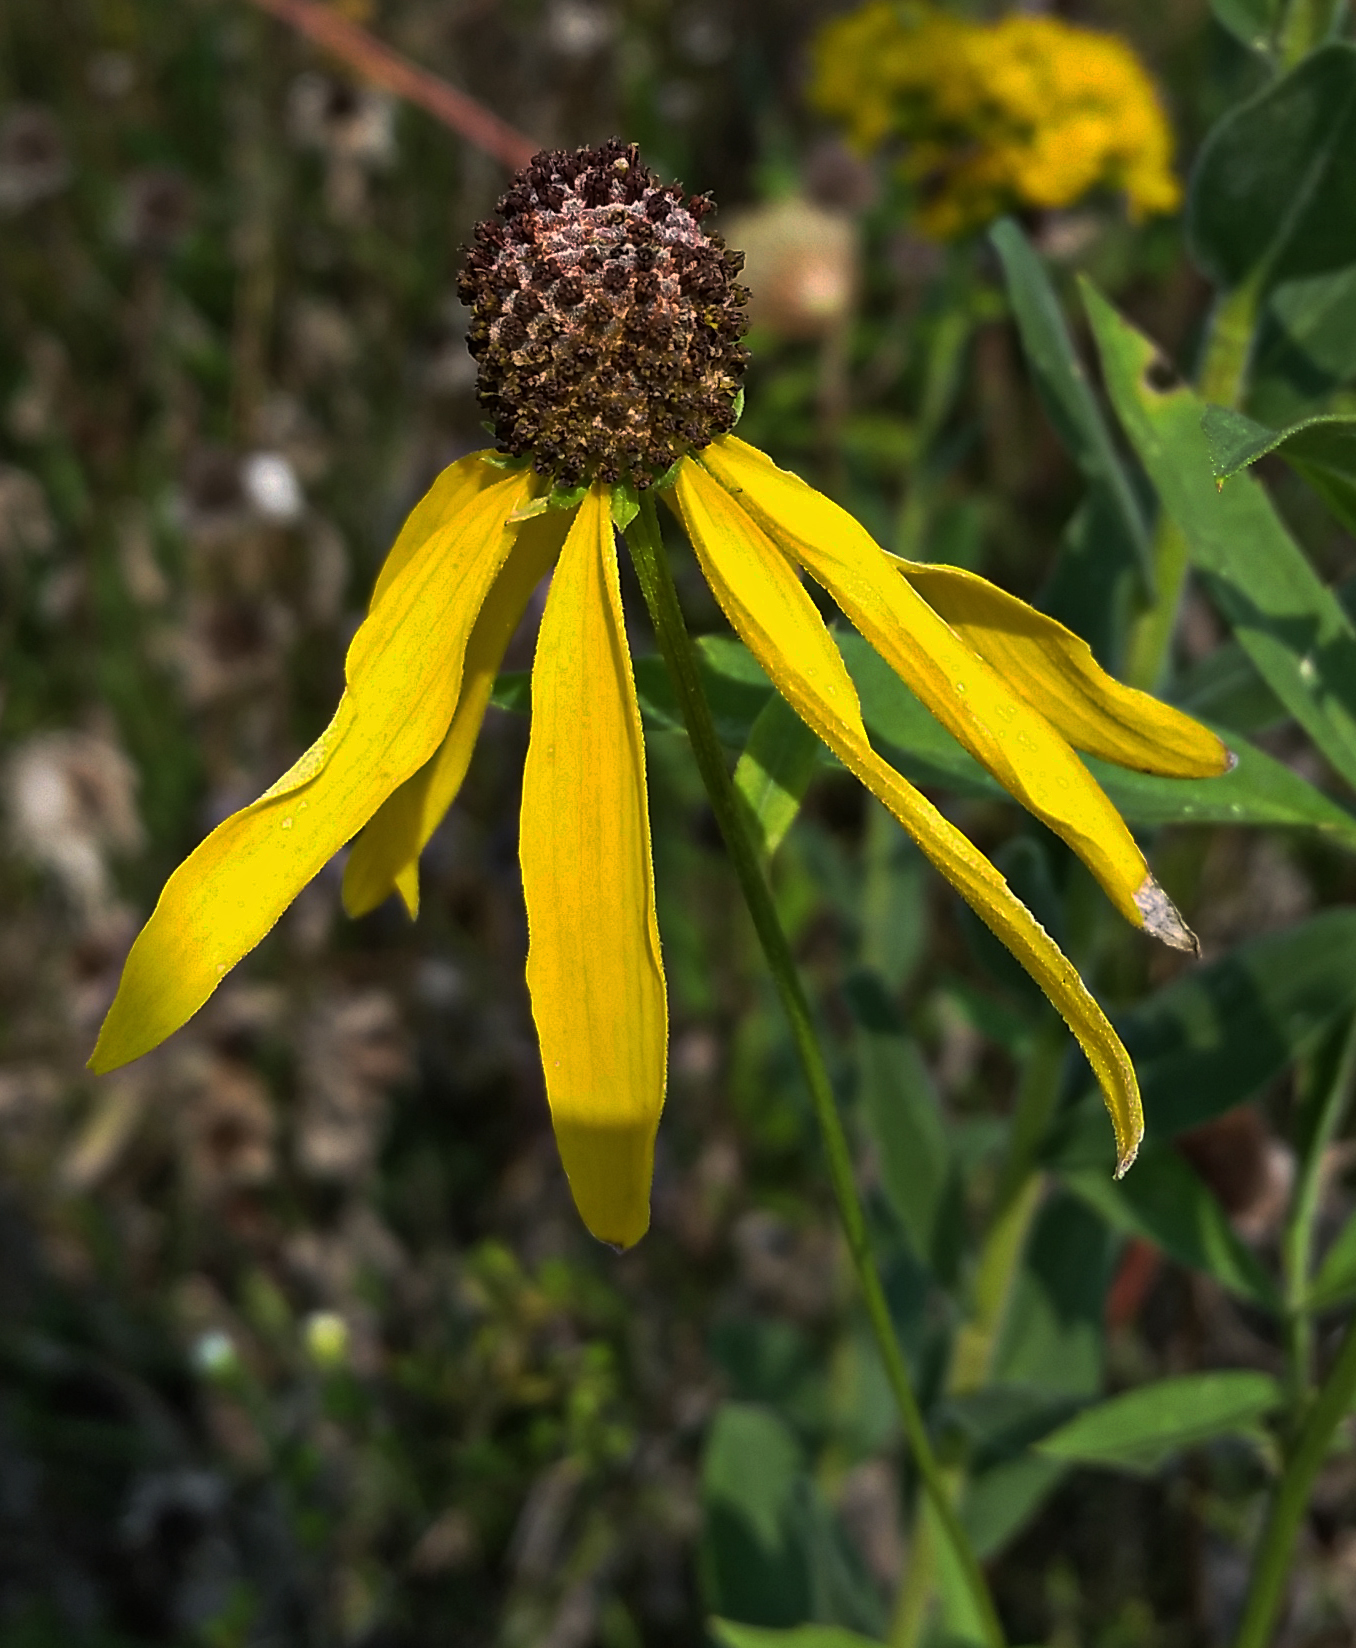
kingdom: Plantae
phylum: Tracheophyta
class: Magnoliopsida
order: Asterales
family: Asteraceae
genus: Ratibida
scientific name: Ratibida pinnata
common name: Drooping prairie-coneflower
